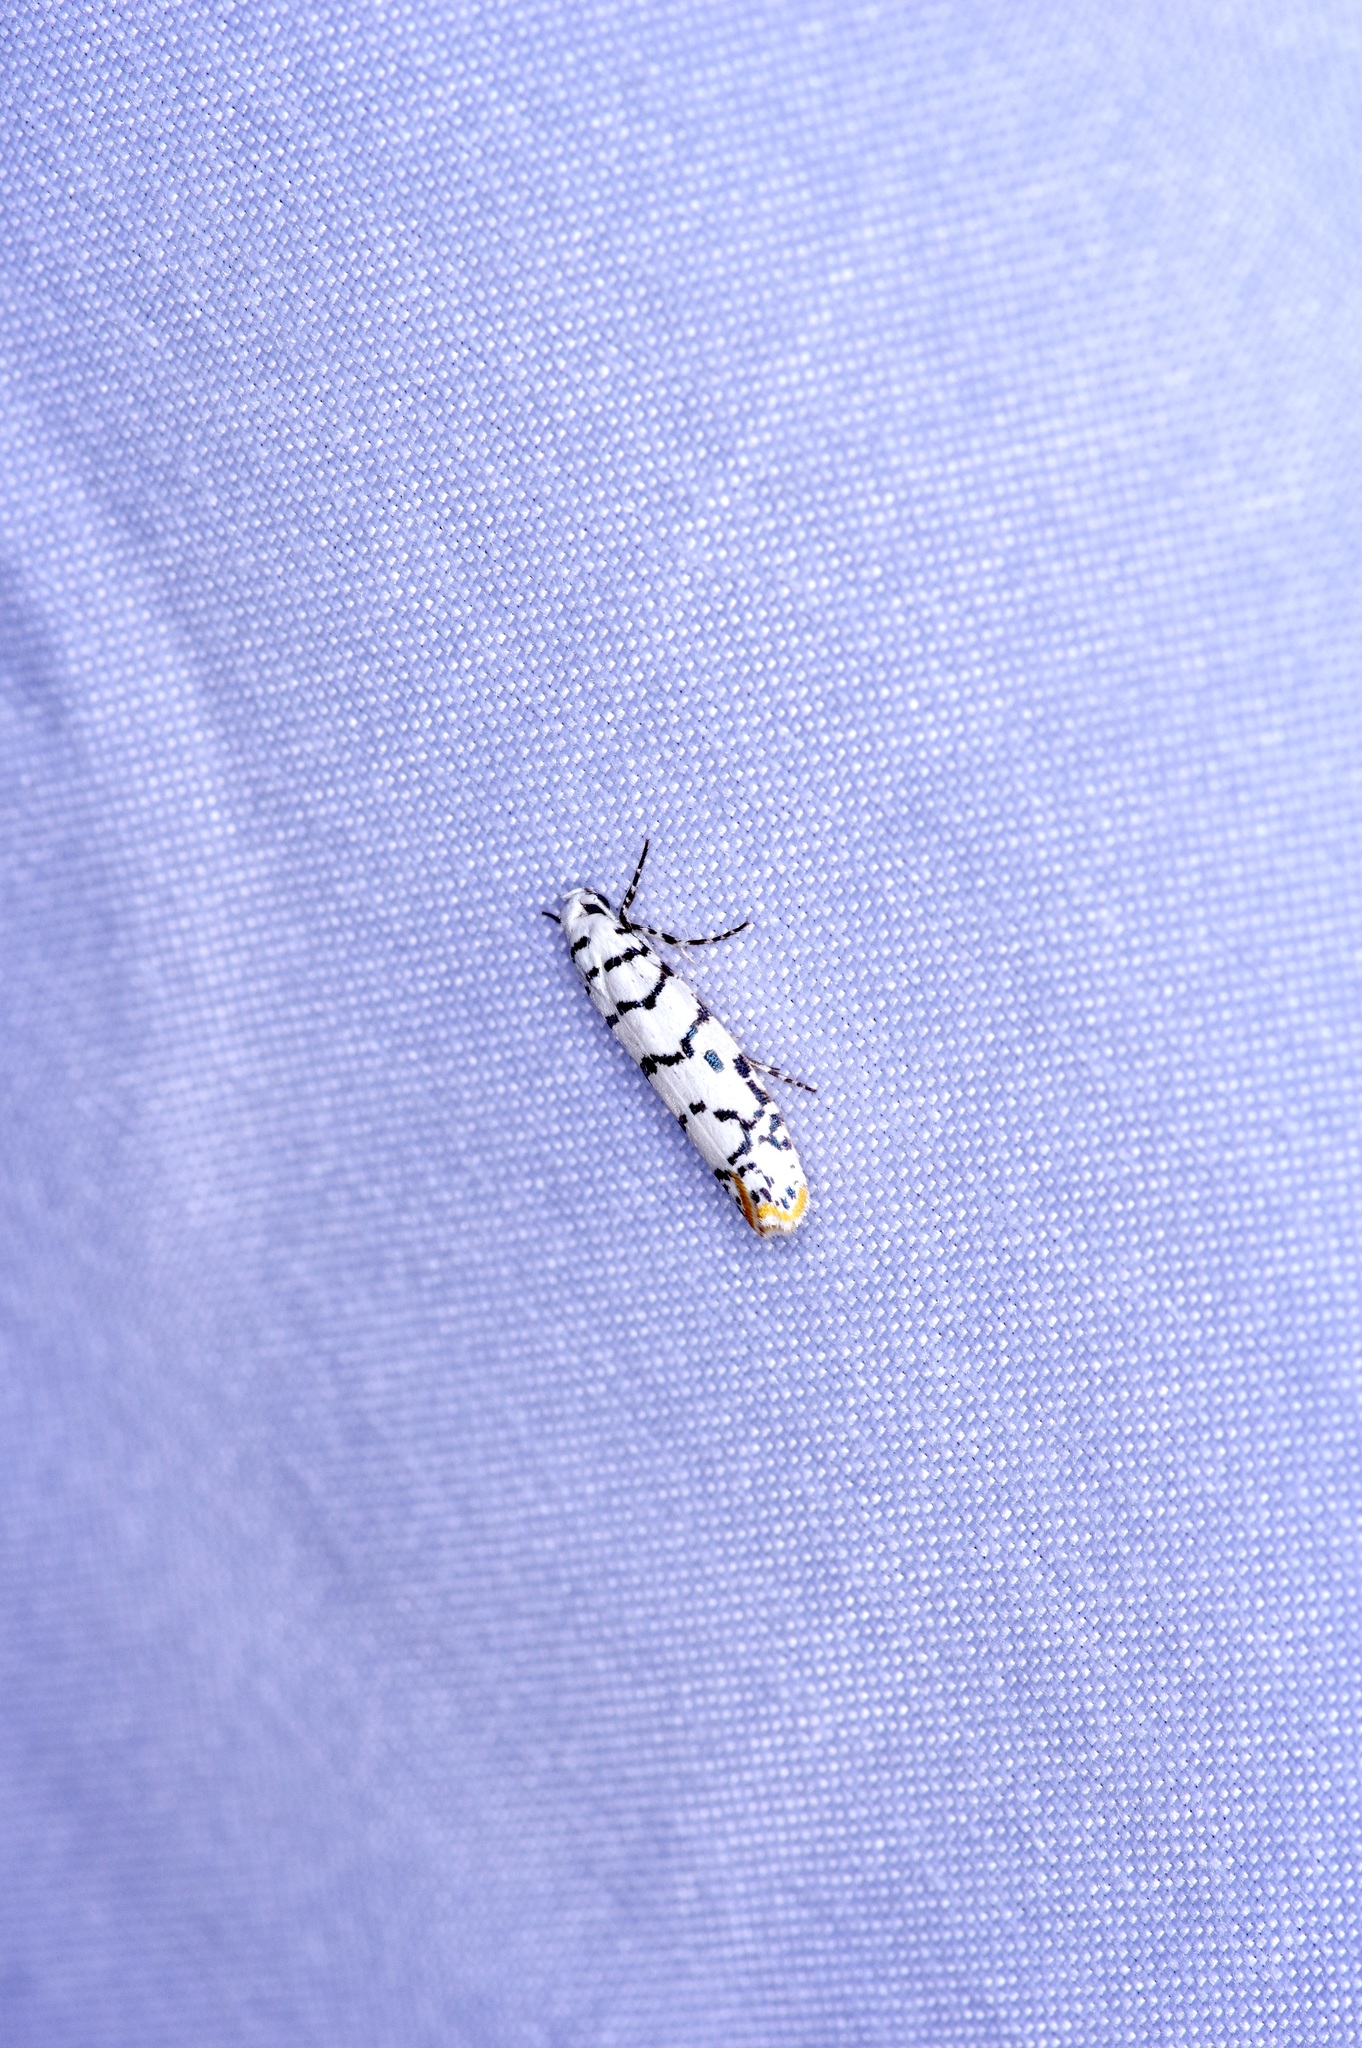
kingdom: Animalia
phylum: Arthropoda
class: Insecta
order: Lepidoptera
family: Ethmiidae
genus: Ethmia
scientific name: Ethmia delliella
